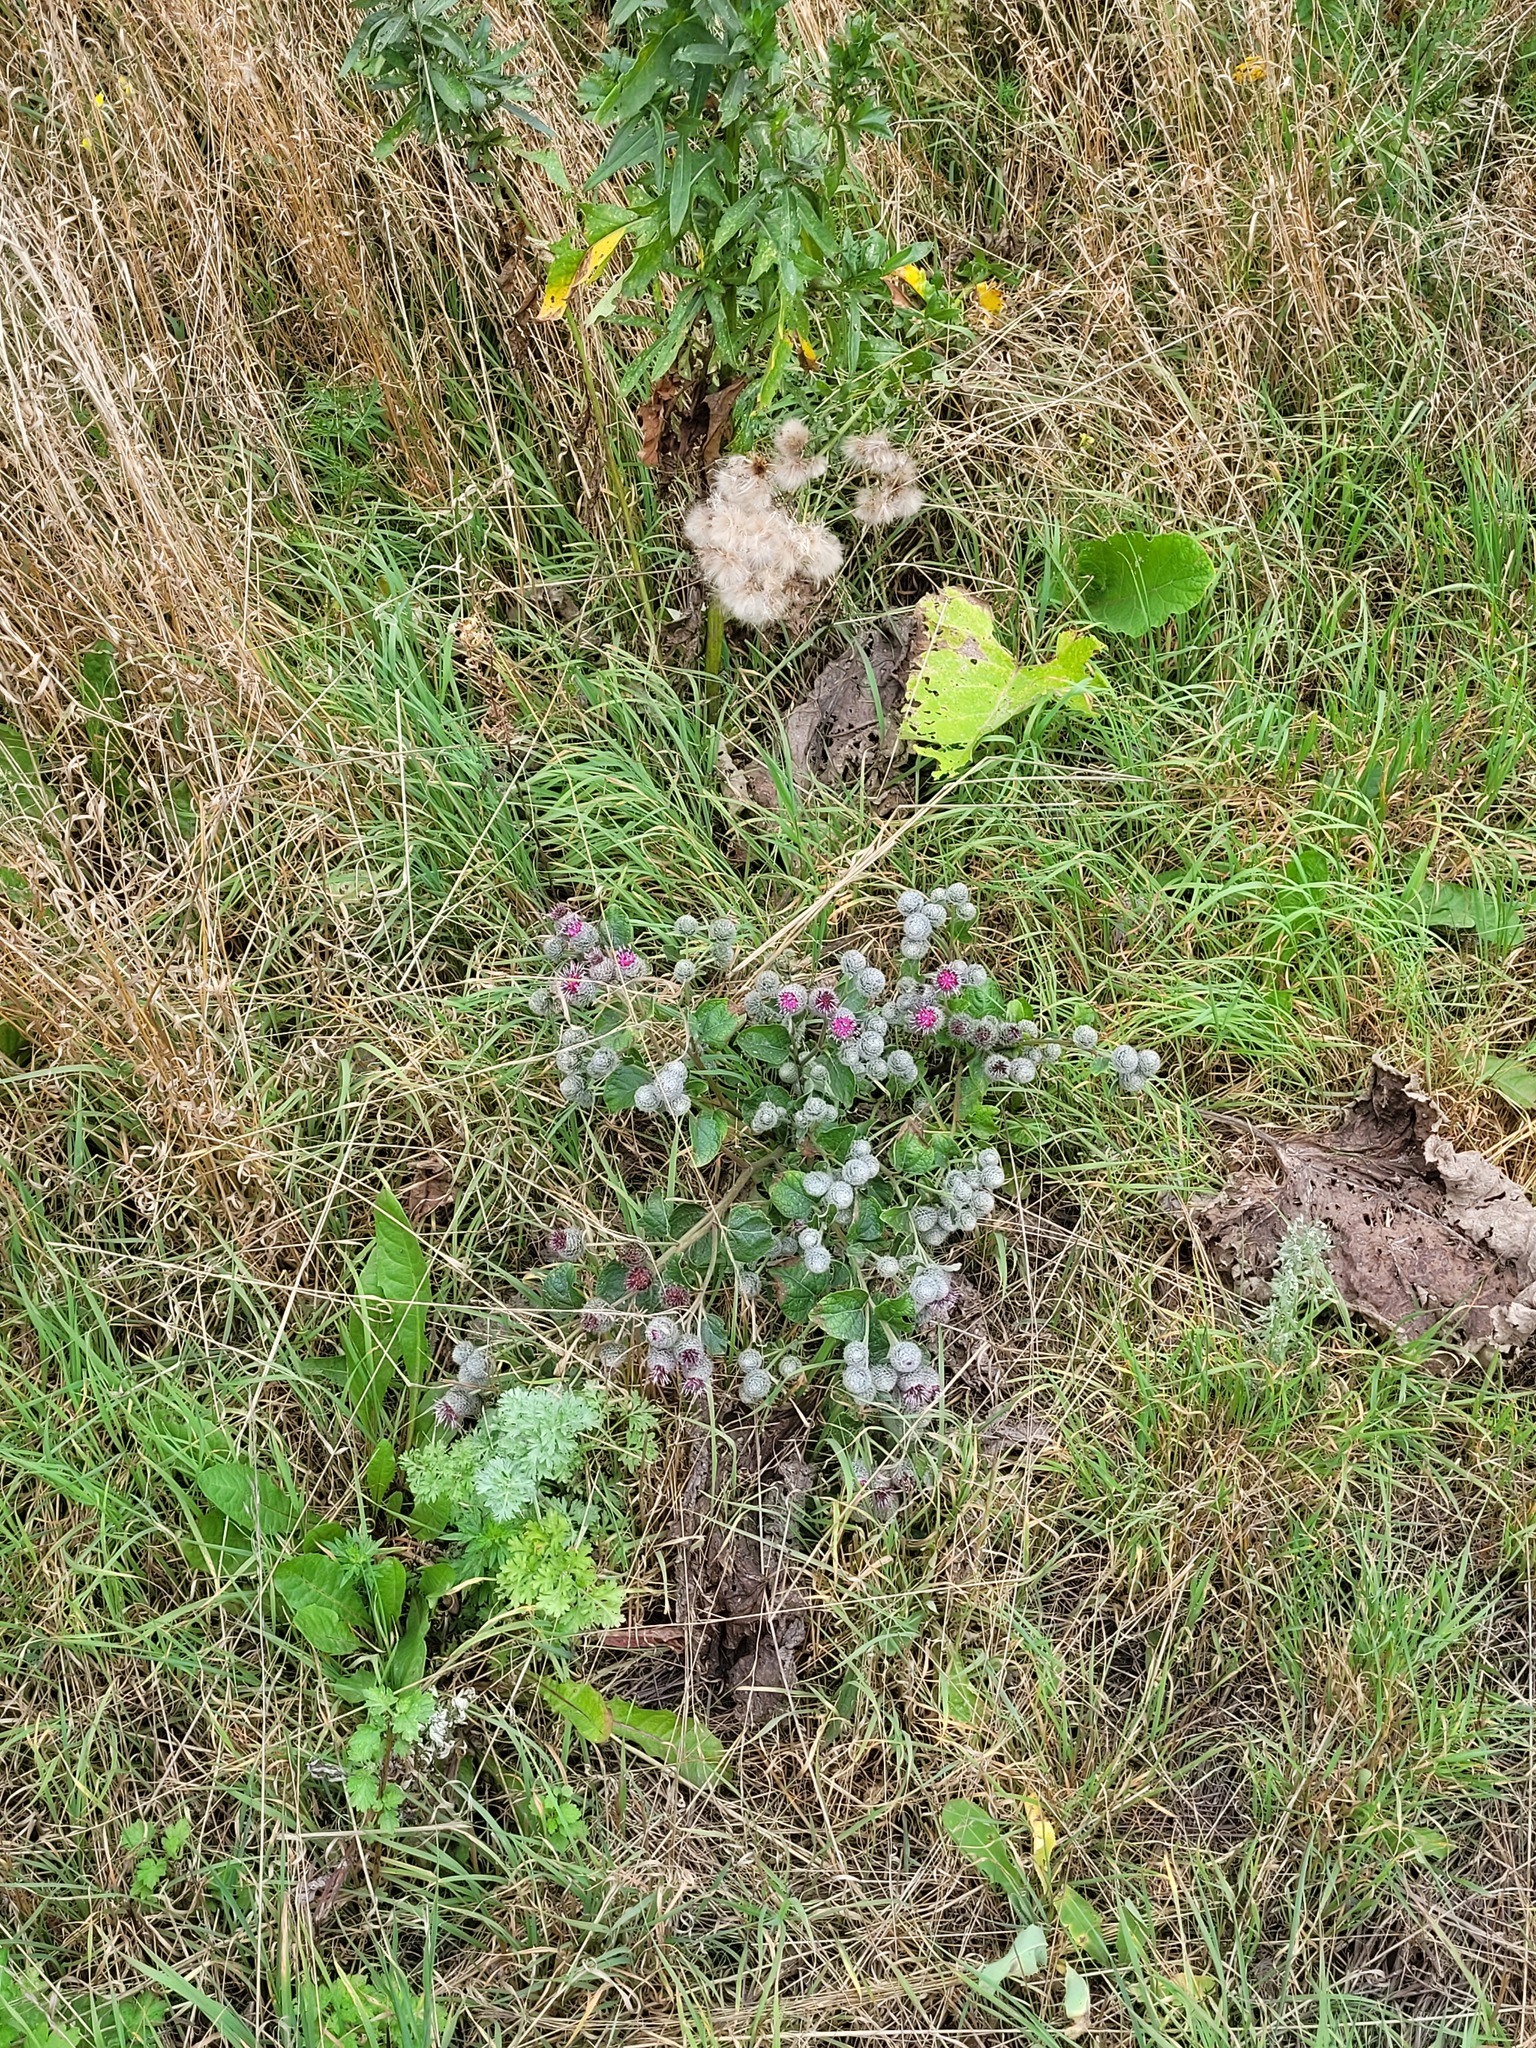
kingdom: Plantae
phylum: Tracheophyta
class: Magnoliopsida
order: Asterales
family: Asteraceae
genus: Arctium
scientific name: Arctium tomentosum
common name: Woolly burdock
